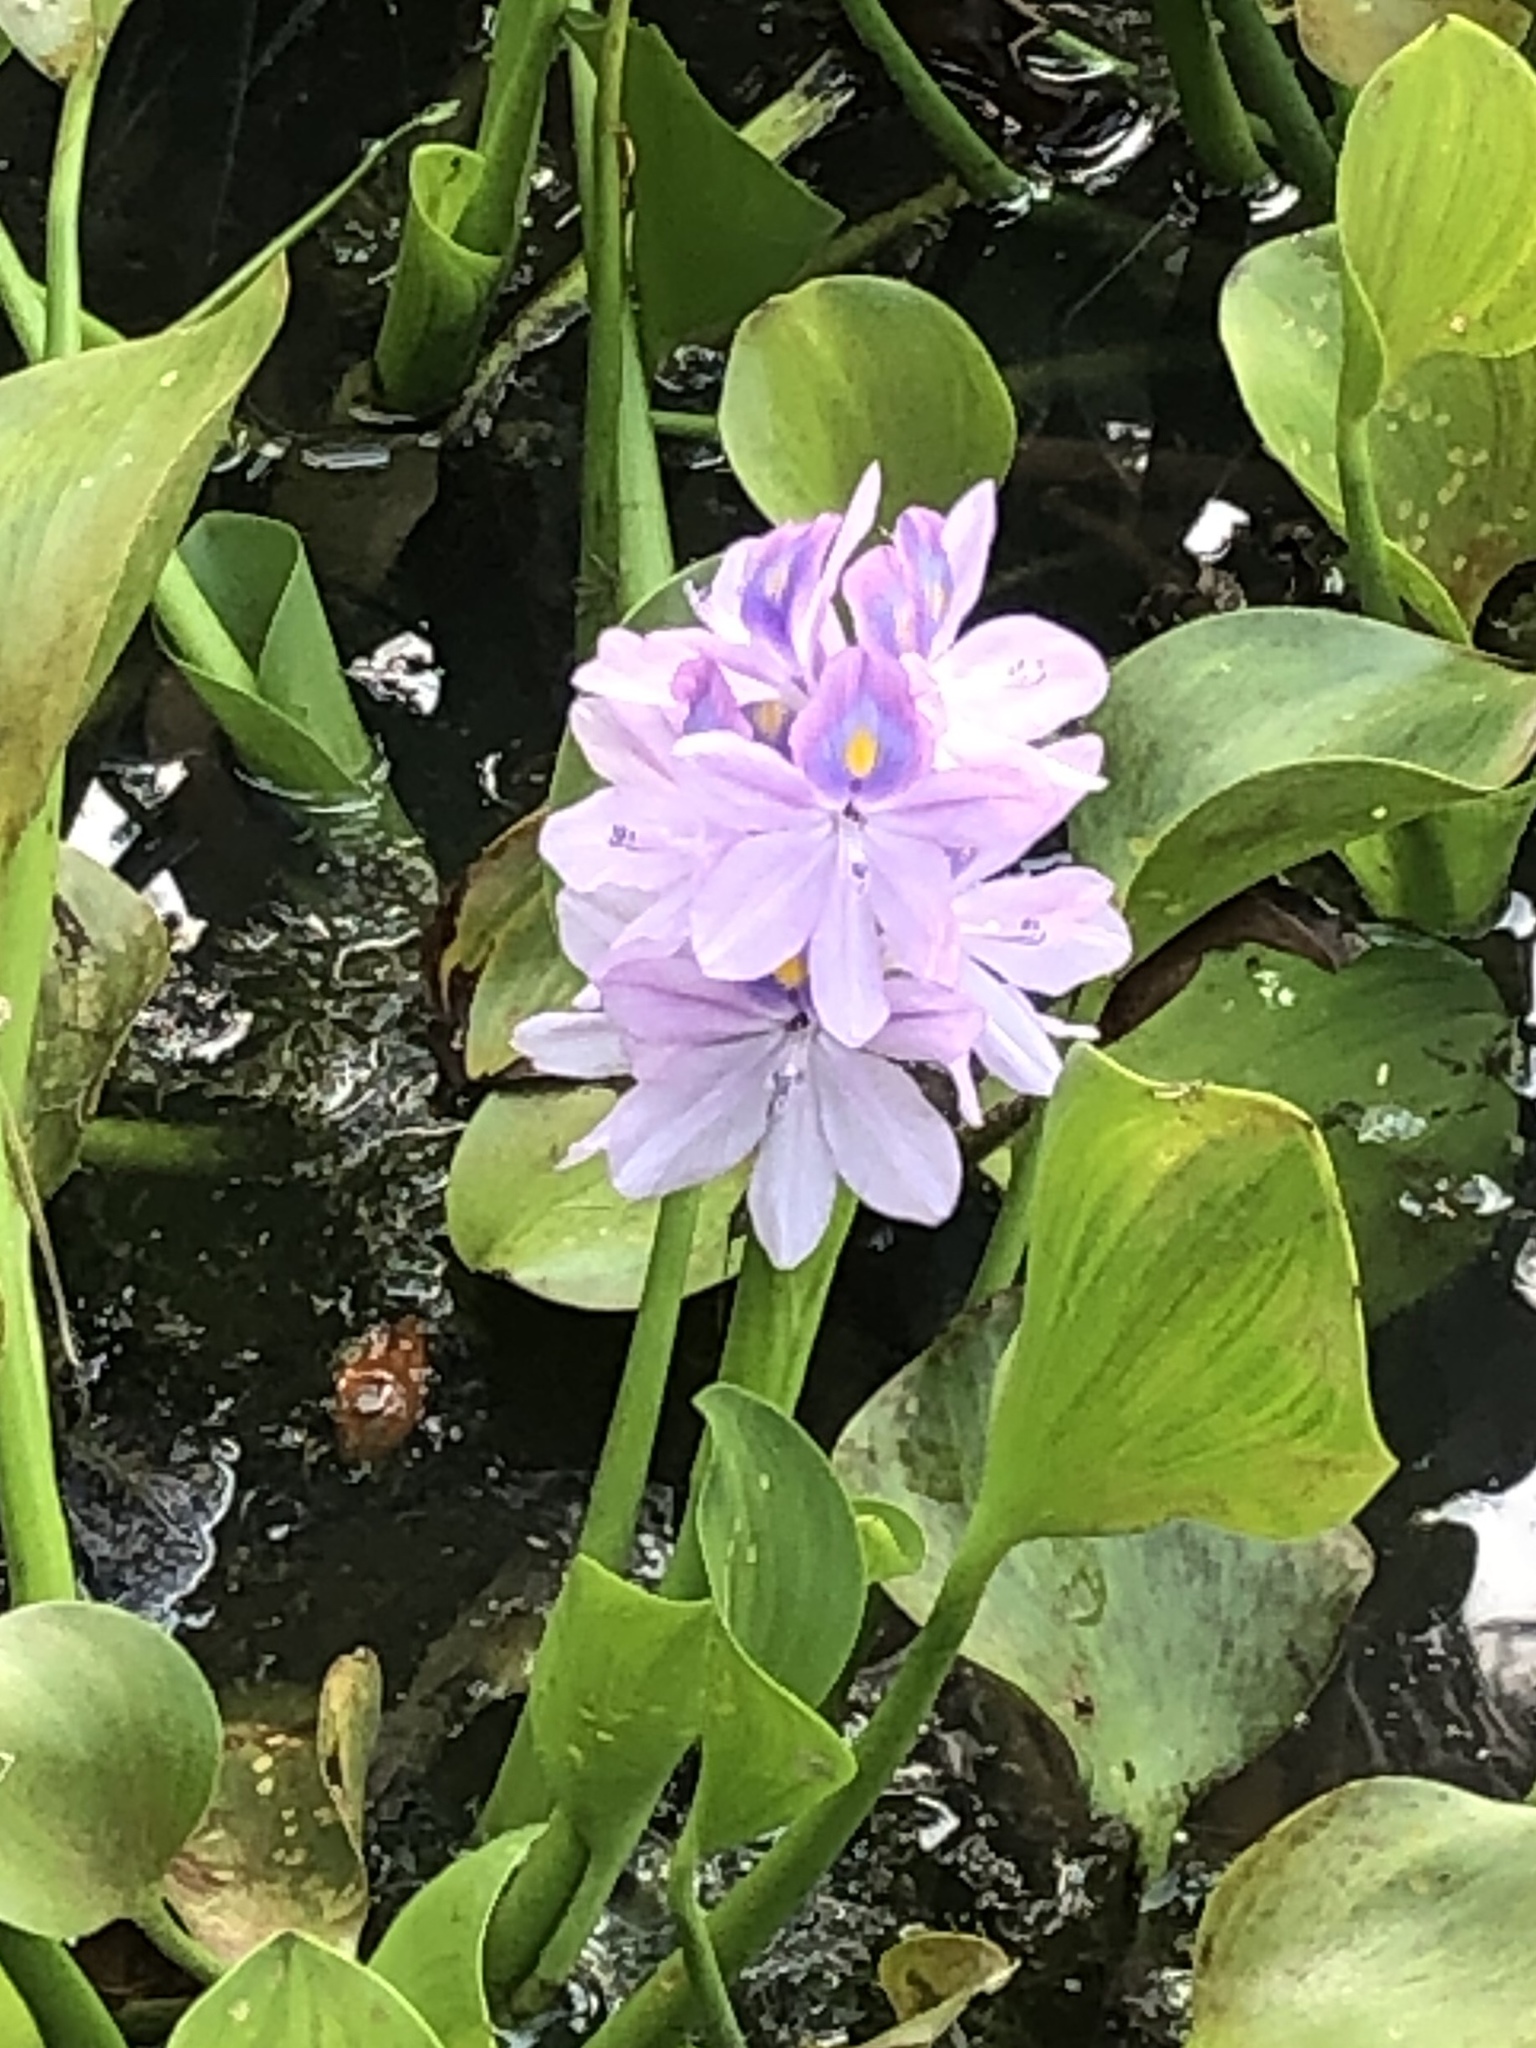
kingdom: Plantae
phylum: Tracheophyta
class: Liliopsida
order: Commelinales
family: Pontederiaceae
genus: Pontederia
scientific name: Pontederia crassipes
